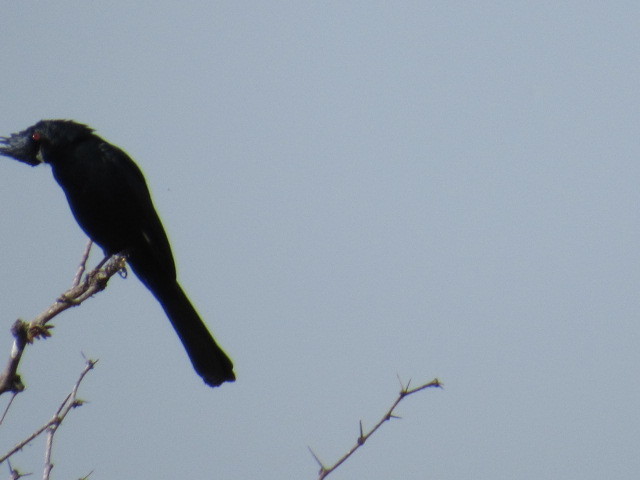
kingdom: Animalia
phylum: Chordata
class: Aves
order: Passeriformes
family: Ptilogonatidae
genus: Phainopepla
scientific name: Phainopepla nitens
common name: Phainopepla
